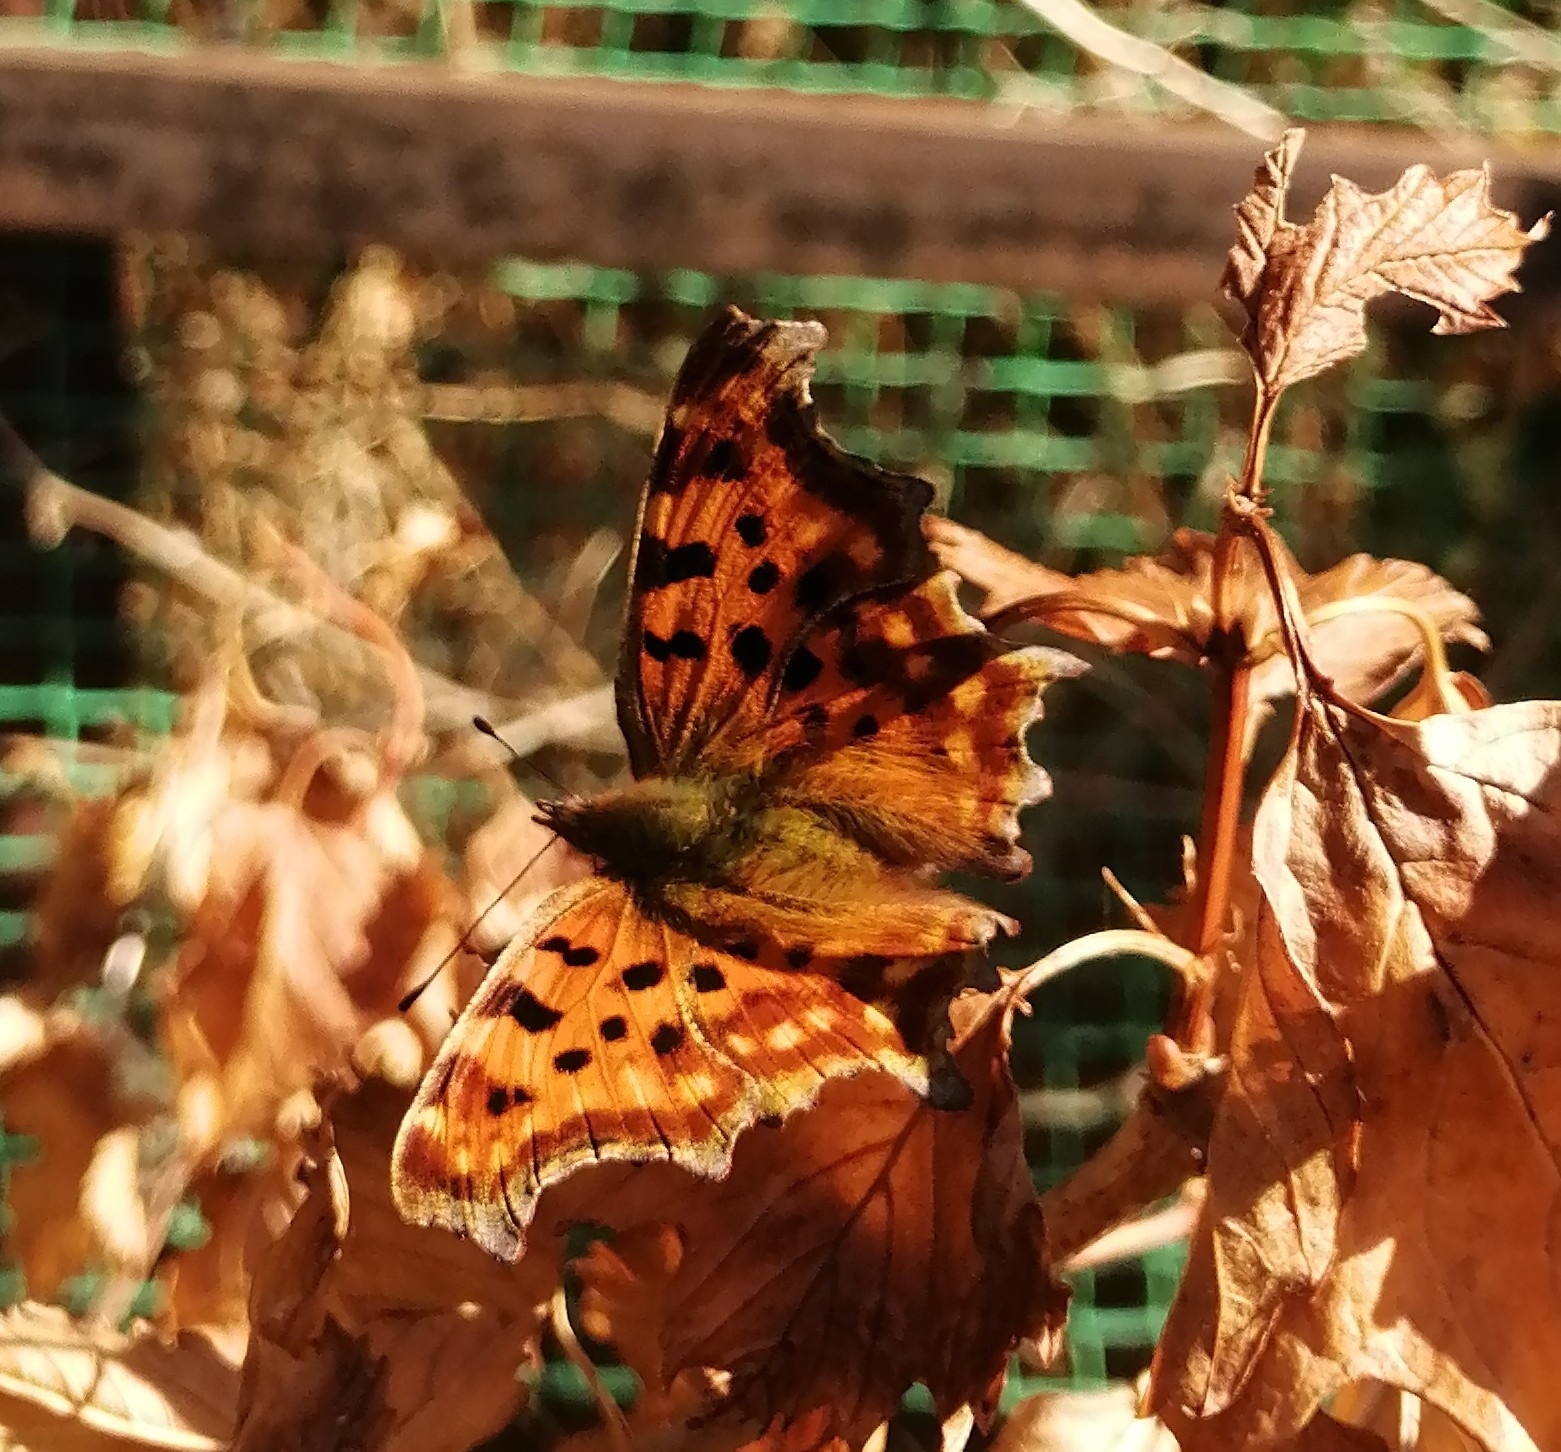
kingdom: Animalia
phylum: Arthropoda
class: Insecta
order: Lepidoptera
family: Nymphalidae
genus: Polygonia
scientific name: Polygonia c-album
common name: Comma
